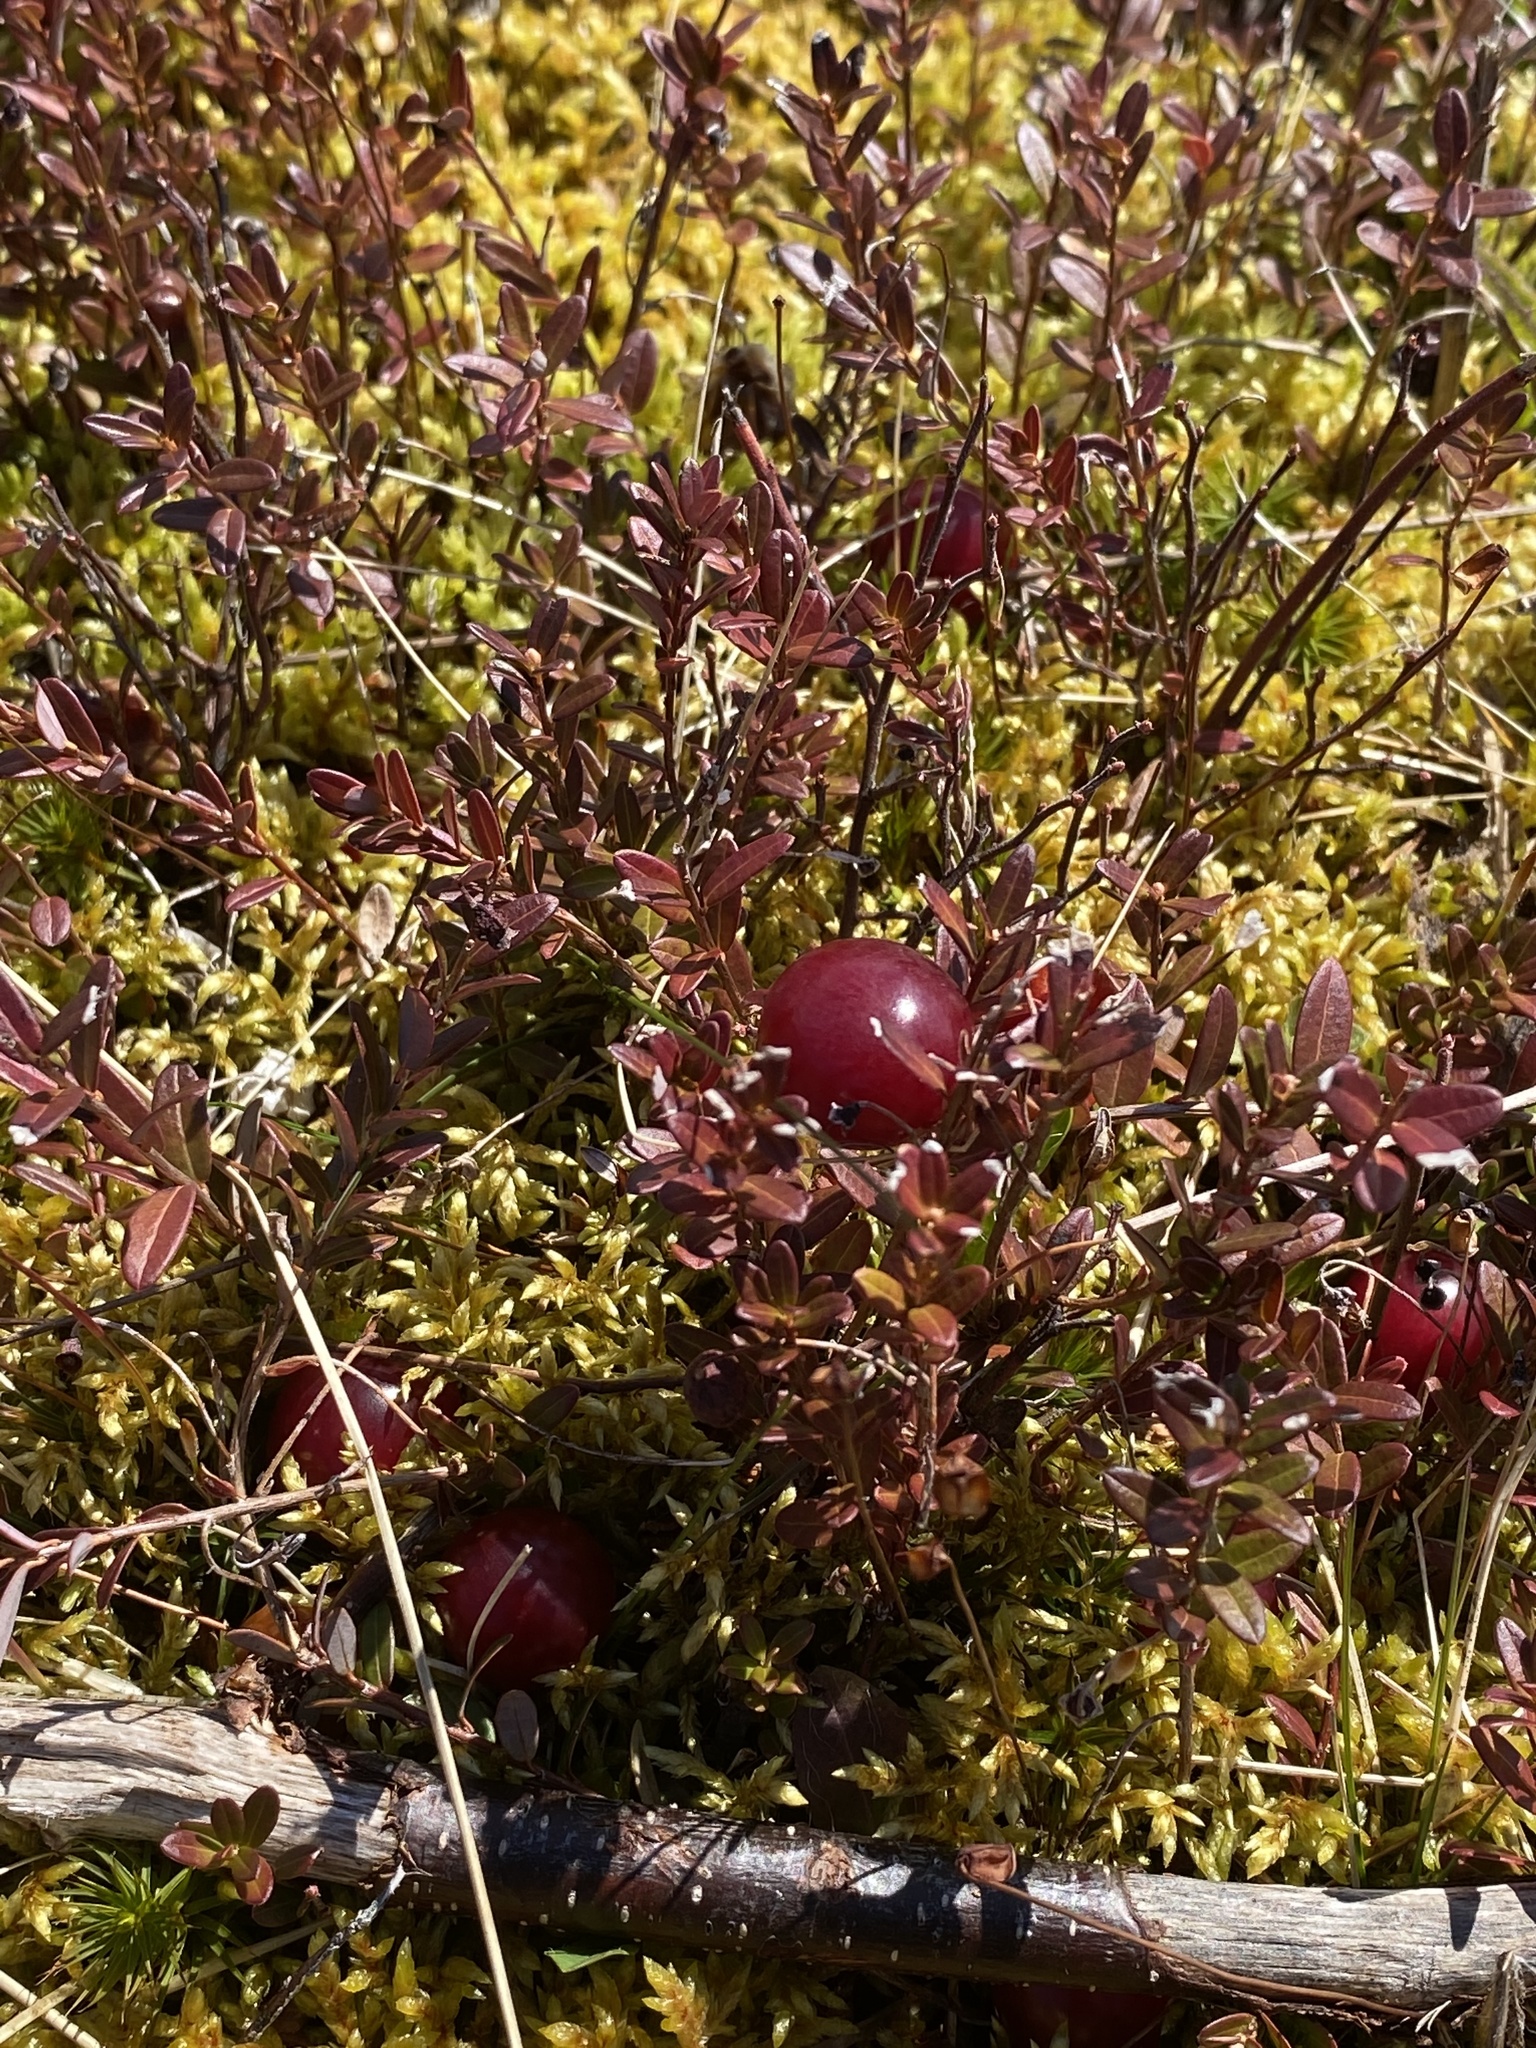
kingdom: Plantae
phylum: Tracheophyta
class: Magnoliopsida
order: Ericales
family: Ericaceae
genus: Vaccinium
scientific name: Vaccinium macrocarpon
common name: American cranberry
